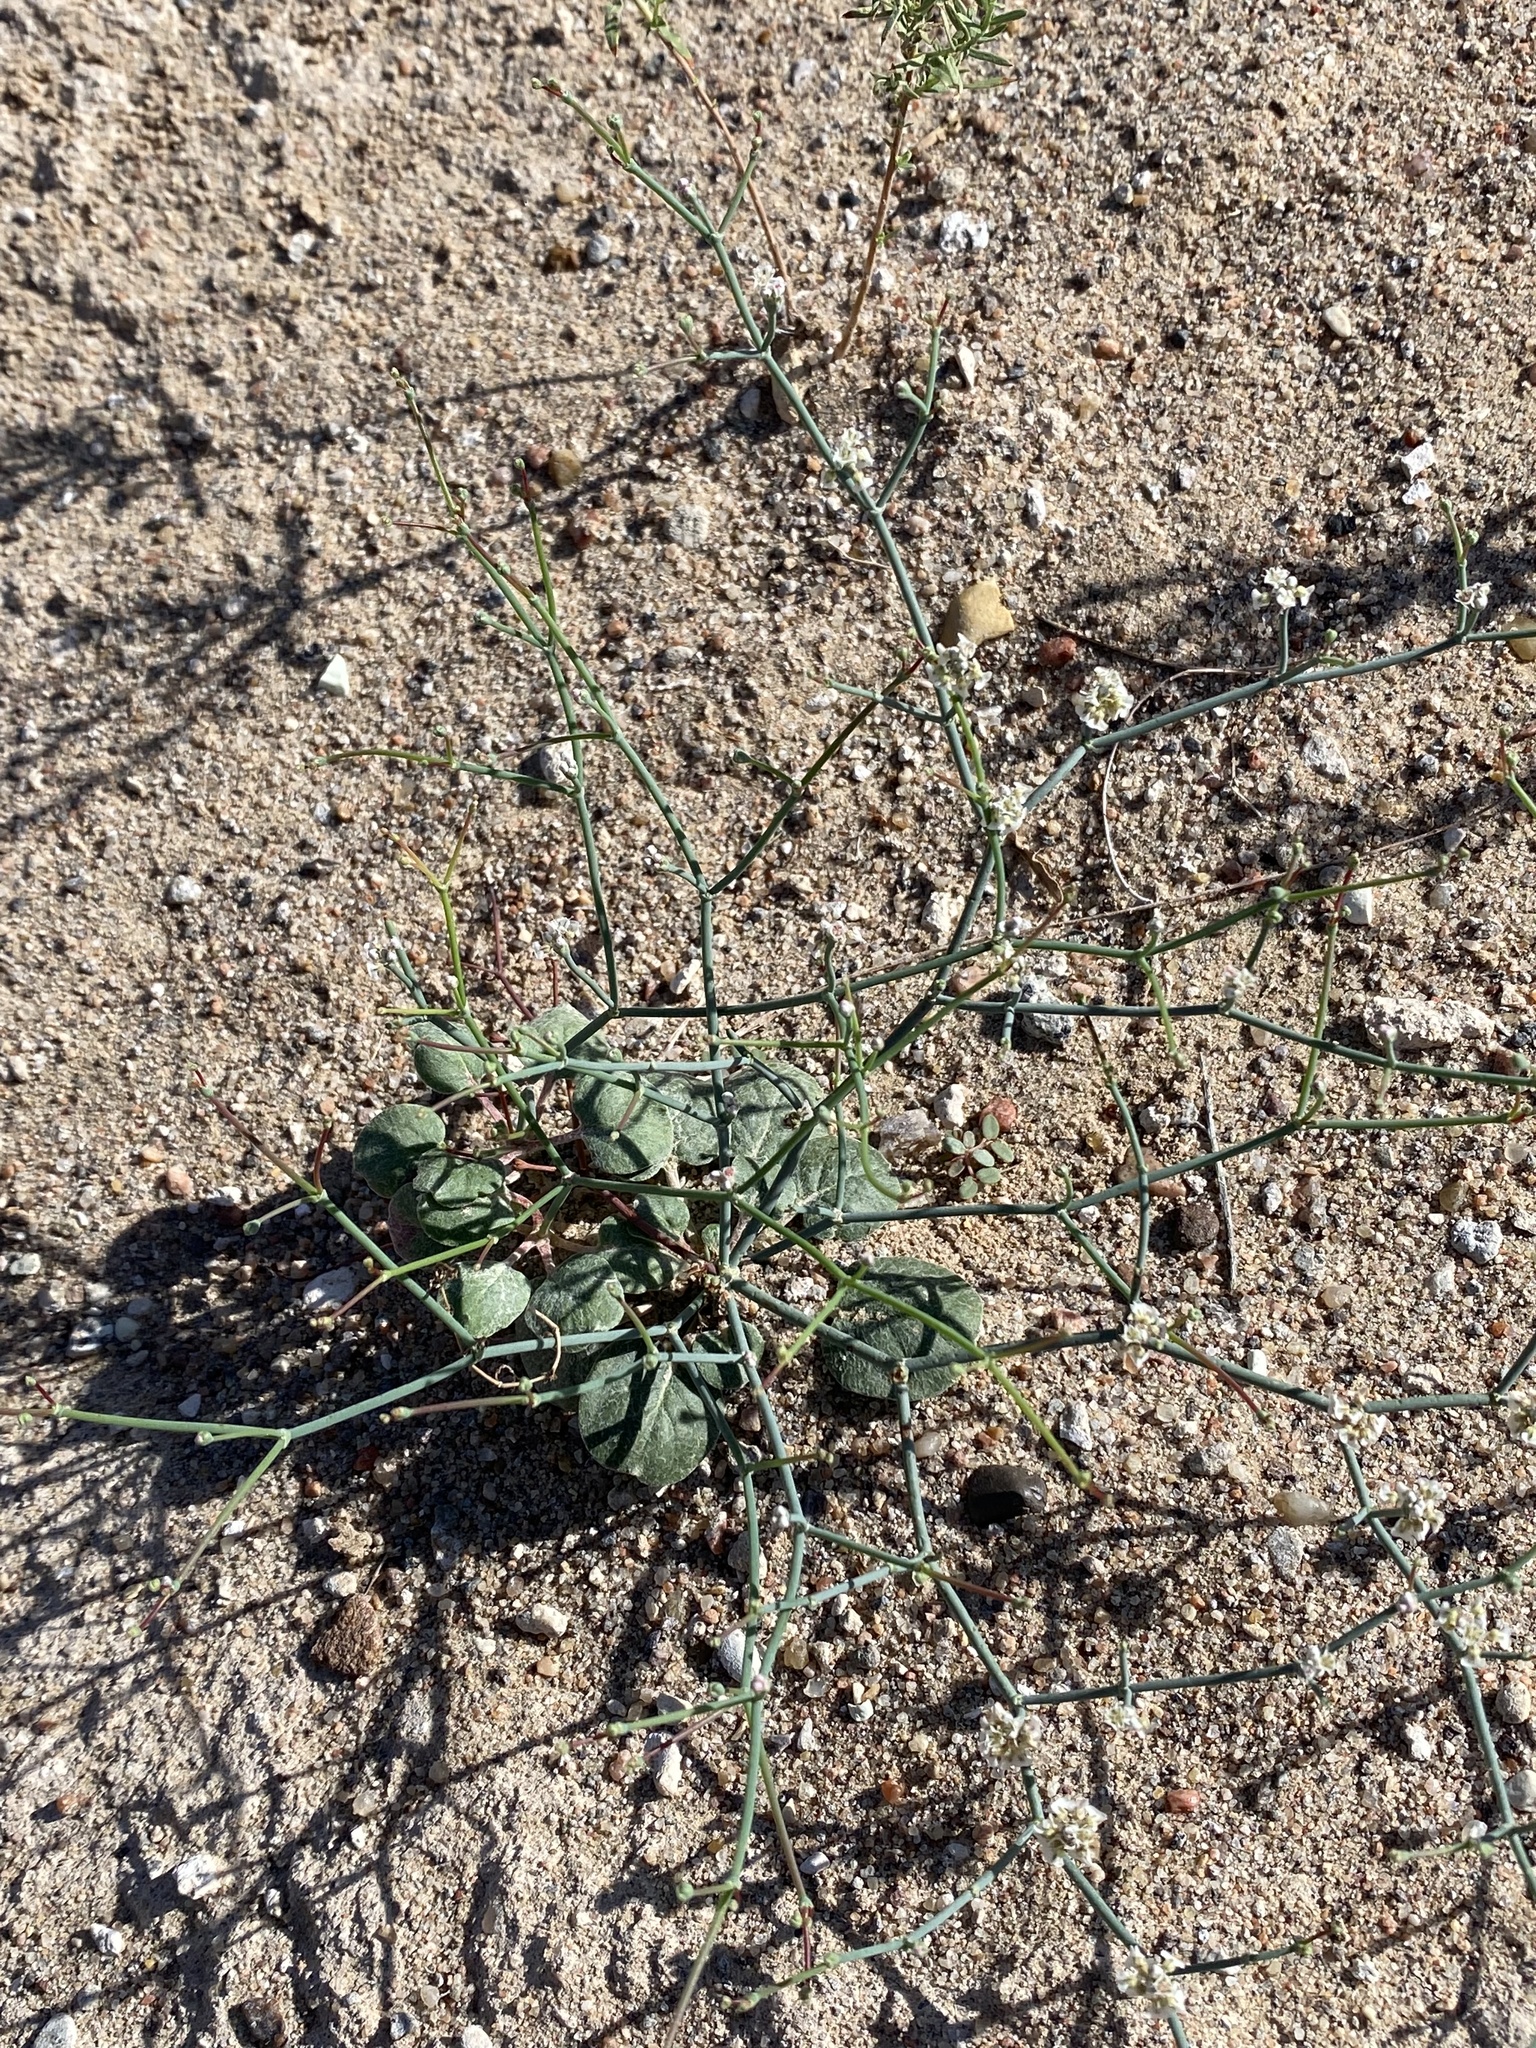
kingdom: Plantae
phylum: Tracheophyta
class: Magnoliopsida
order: Caryophyllales
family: Polygonaceae
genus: Eriogonum
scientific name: Eriogonum rotundifolium
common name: Round-leaf wild buckwheat
